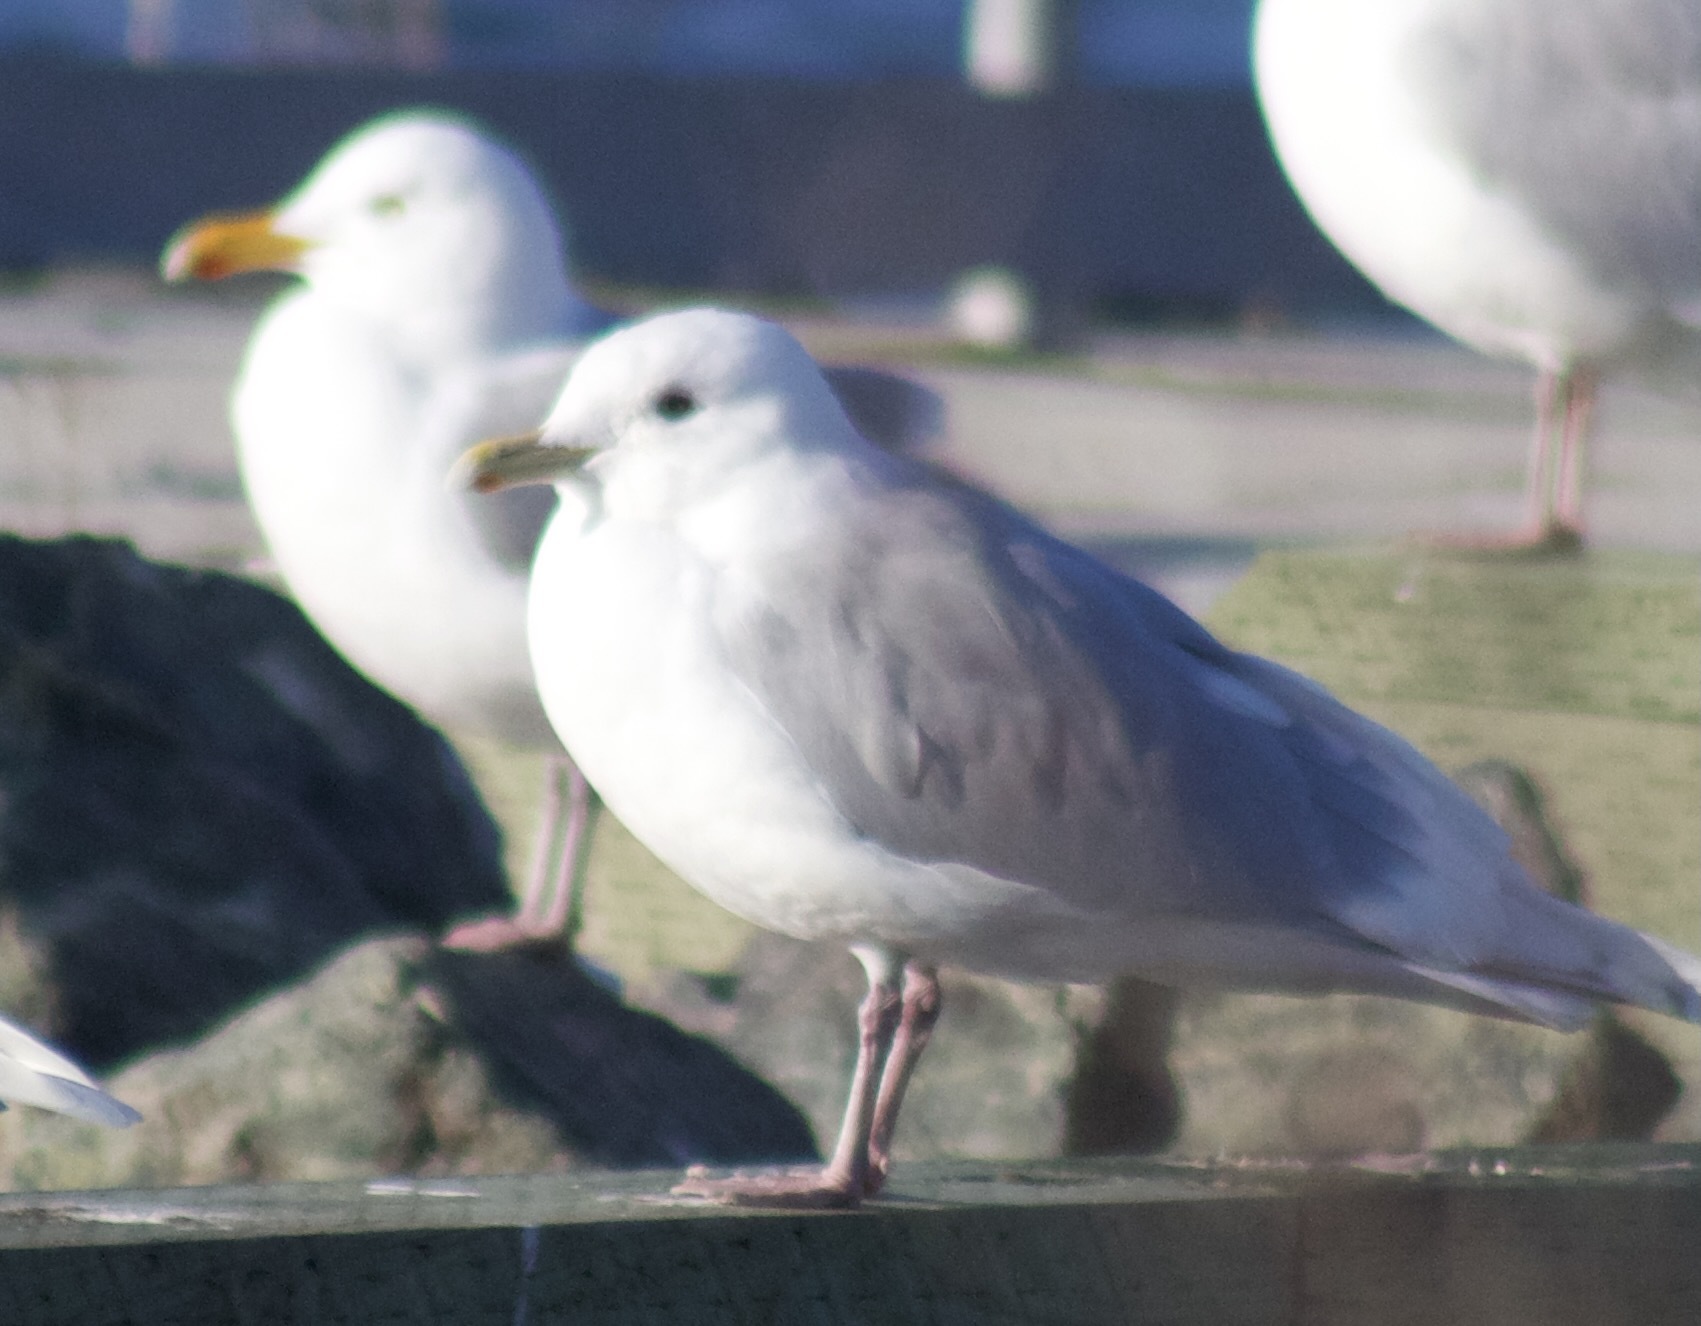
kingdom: Animalia
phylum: Chordata
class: Aves
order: Charadriiformes
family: Laridae
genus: Larus
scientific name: Larus glaucoides
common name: Iceland gull
